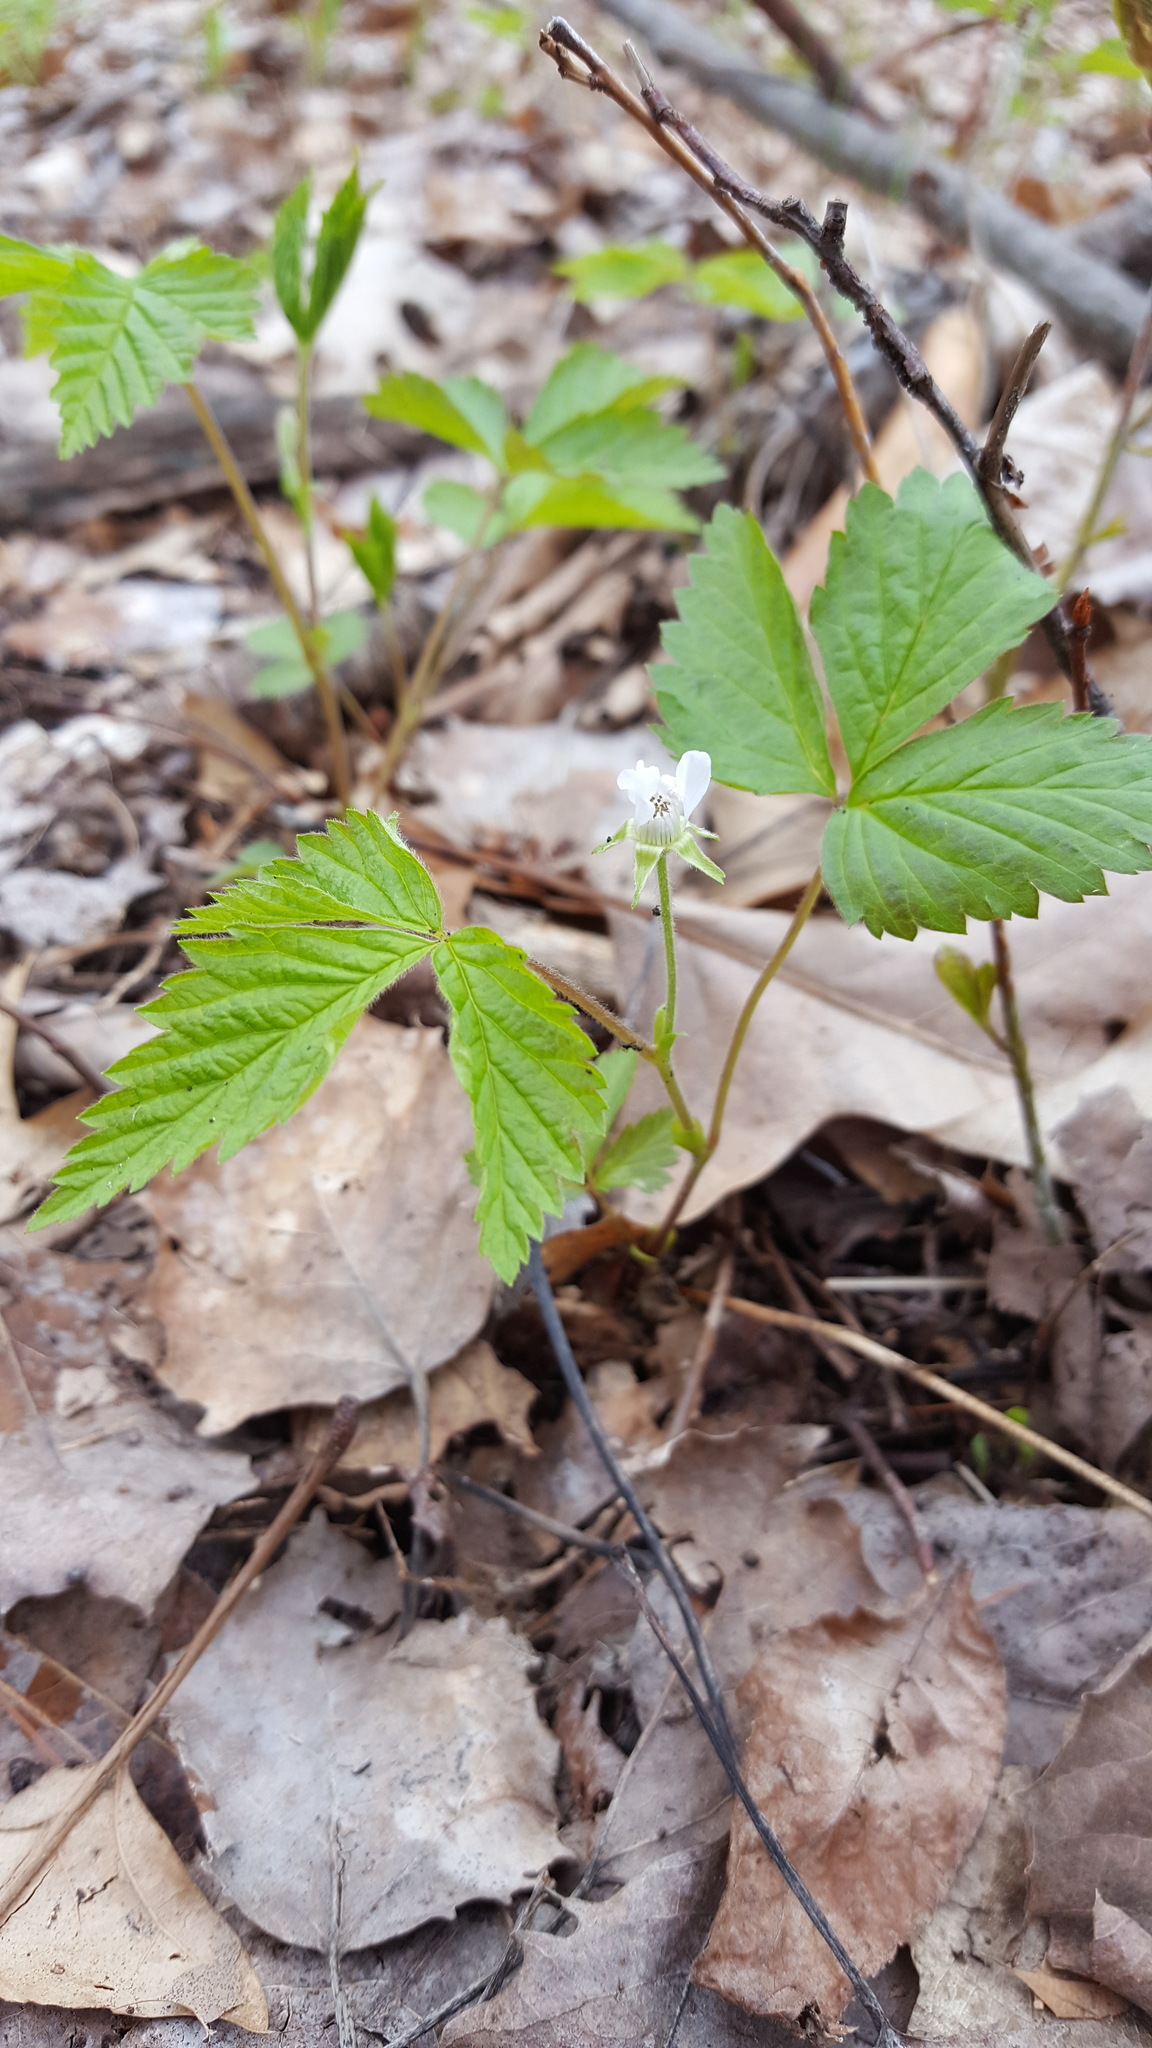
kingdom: Plantae
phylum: Tracheophyta
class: Magnoliopsida
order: Rosales
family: Rosaceae
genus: Rubus
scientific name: Rubus pubescens
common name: Dwarf raspberry
